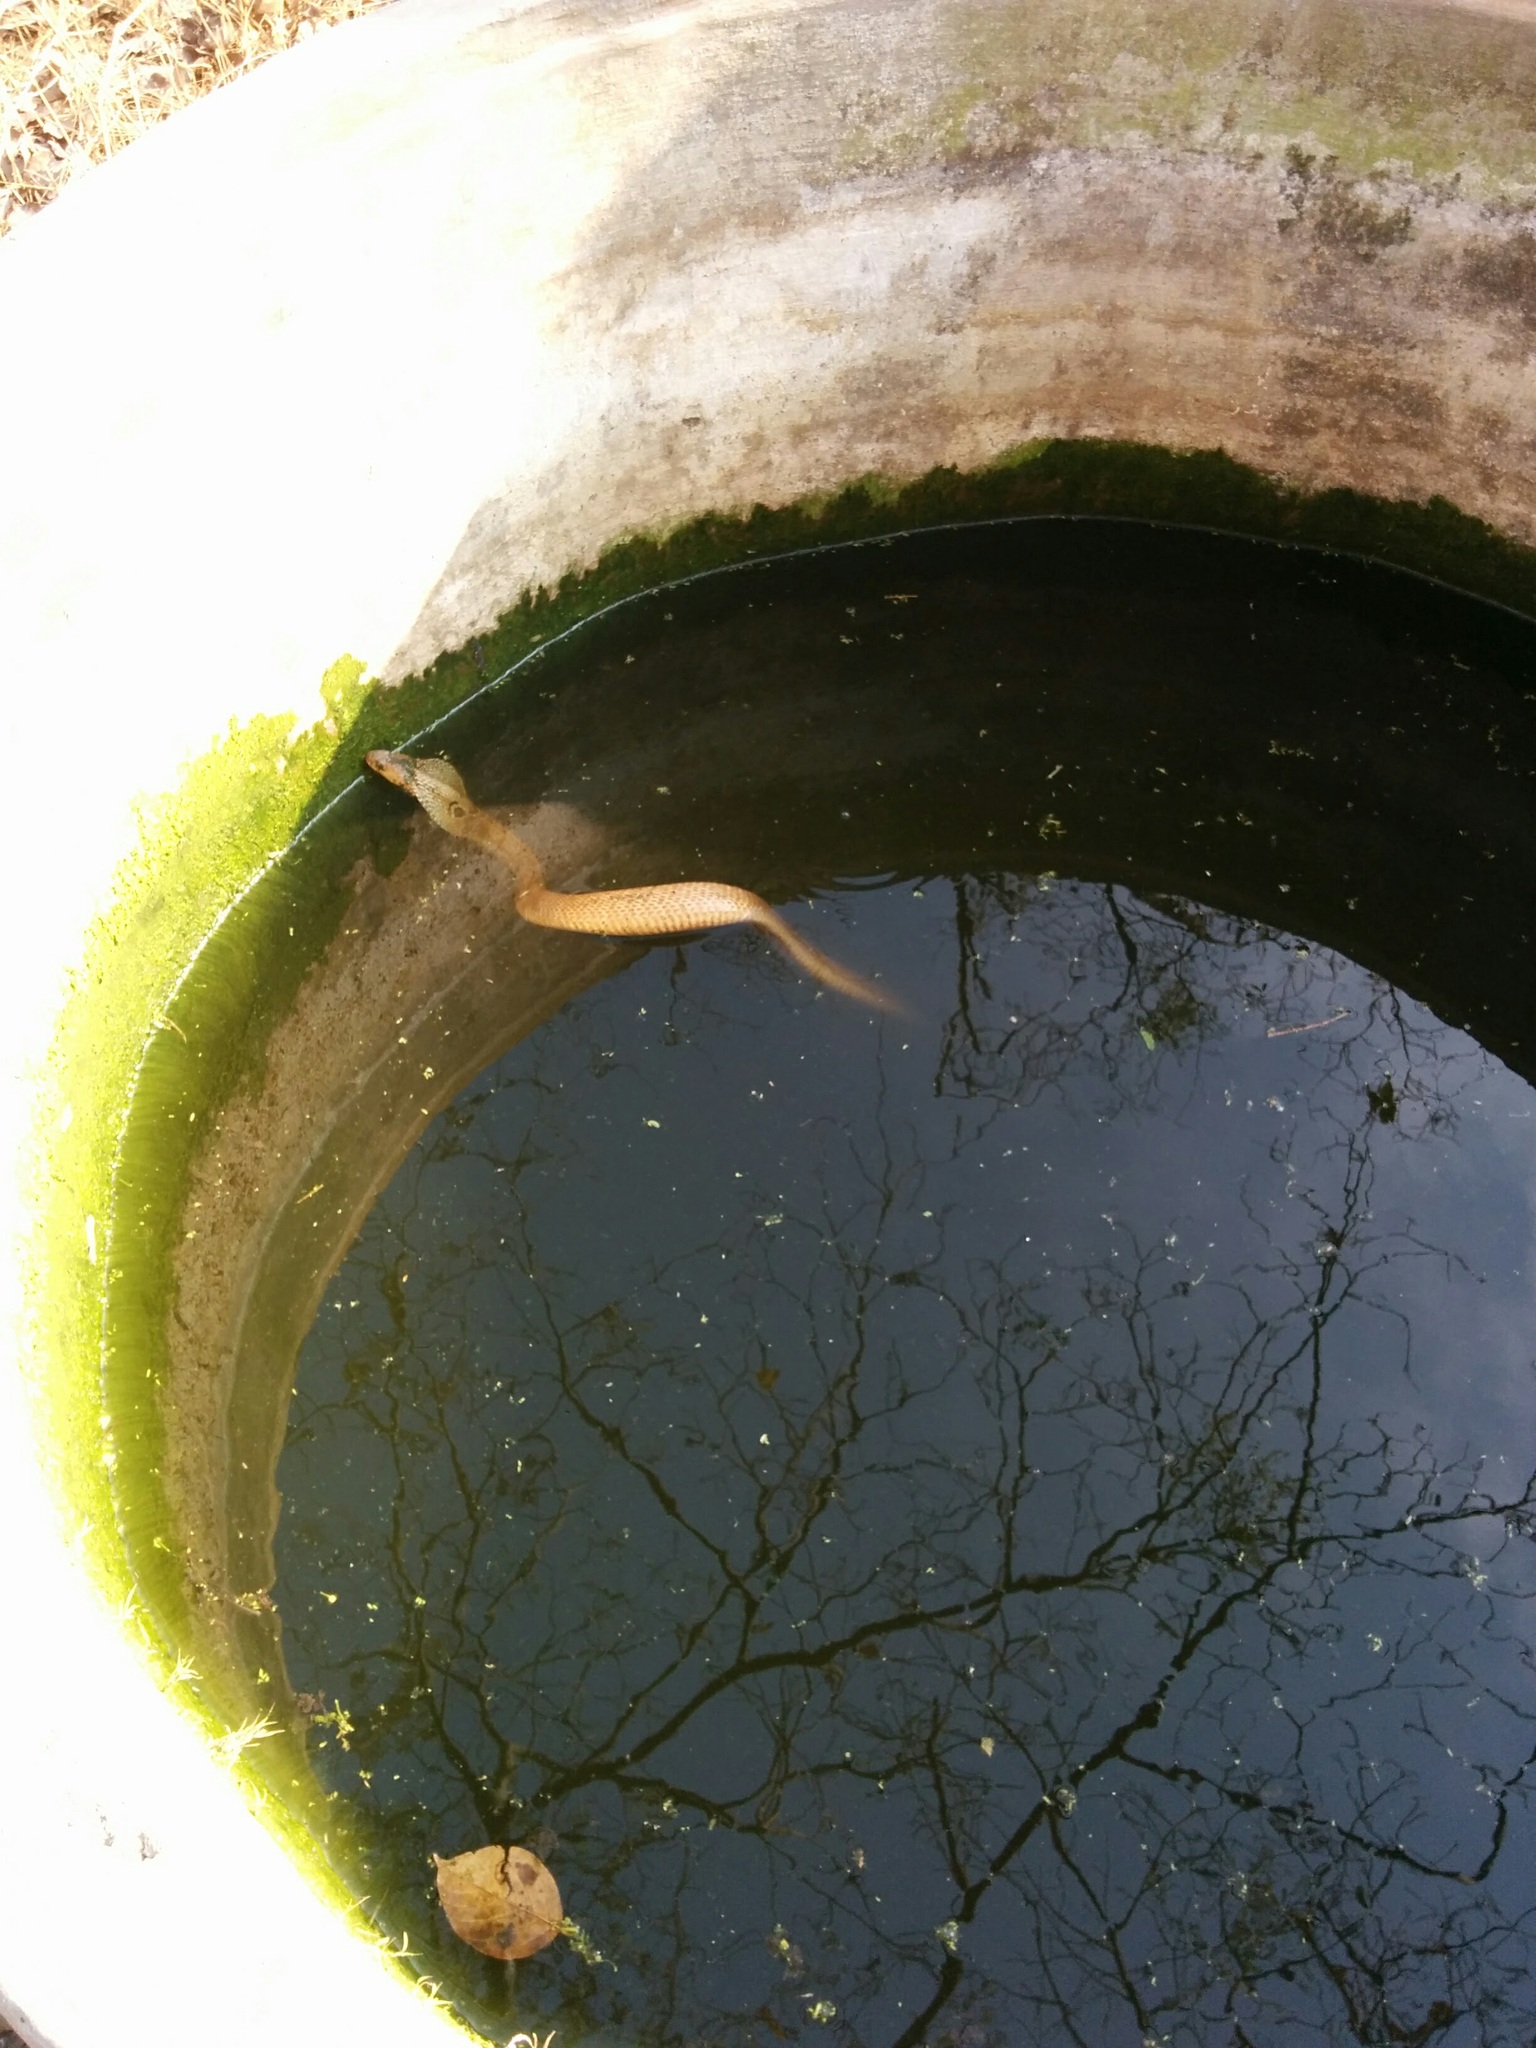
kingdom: Animalia
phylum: Chordata
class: Squamata
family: Elapidae
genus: Naja
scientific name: Naja naja
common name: Indian cobra
